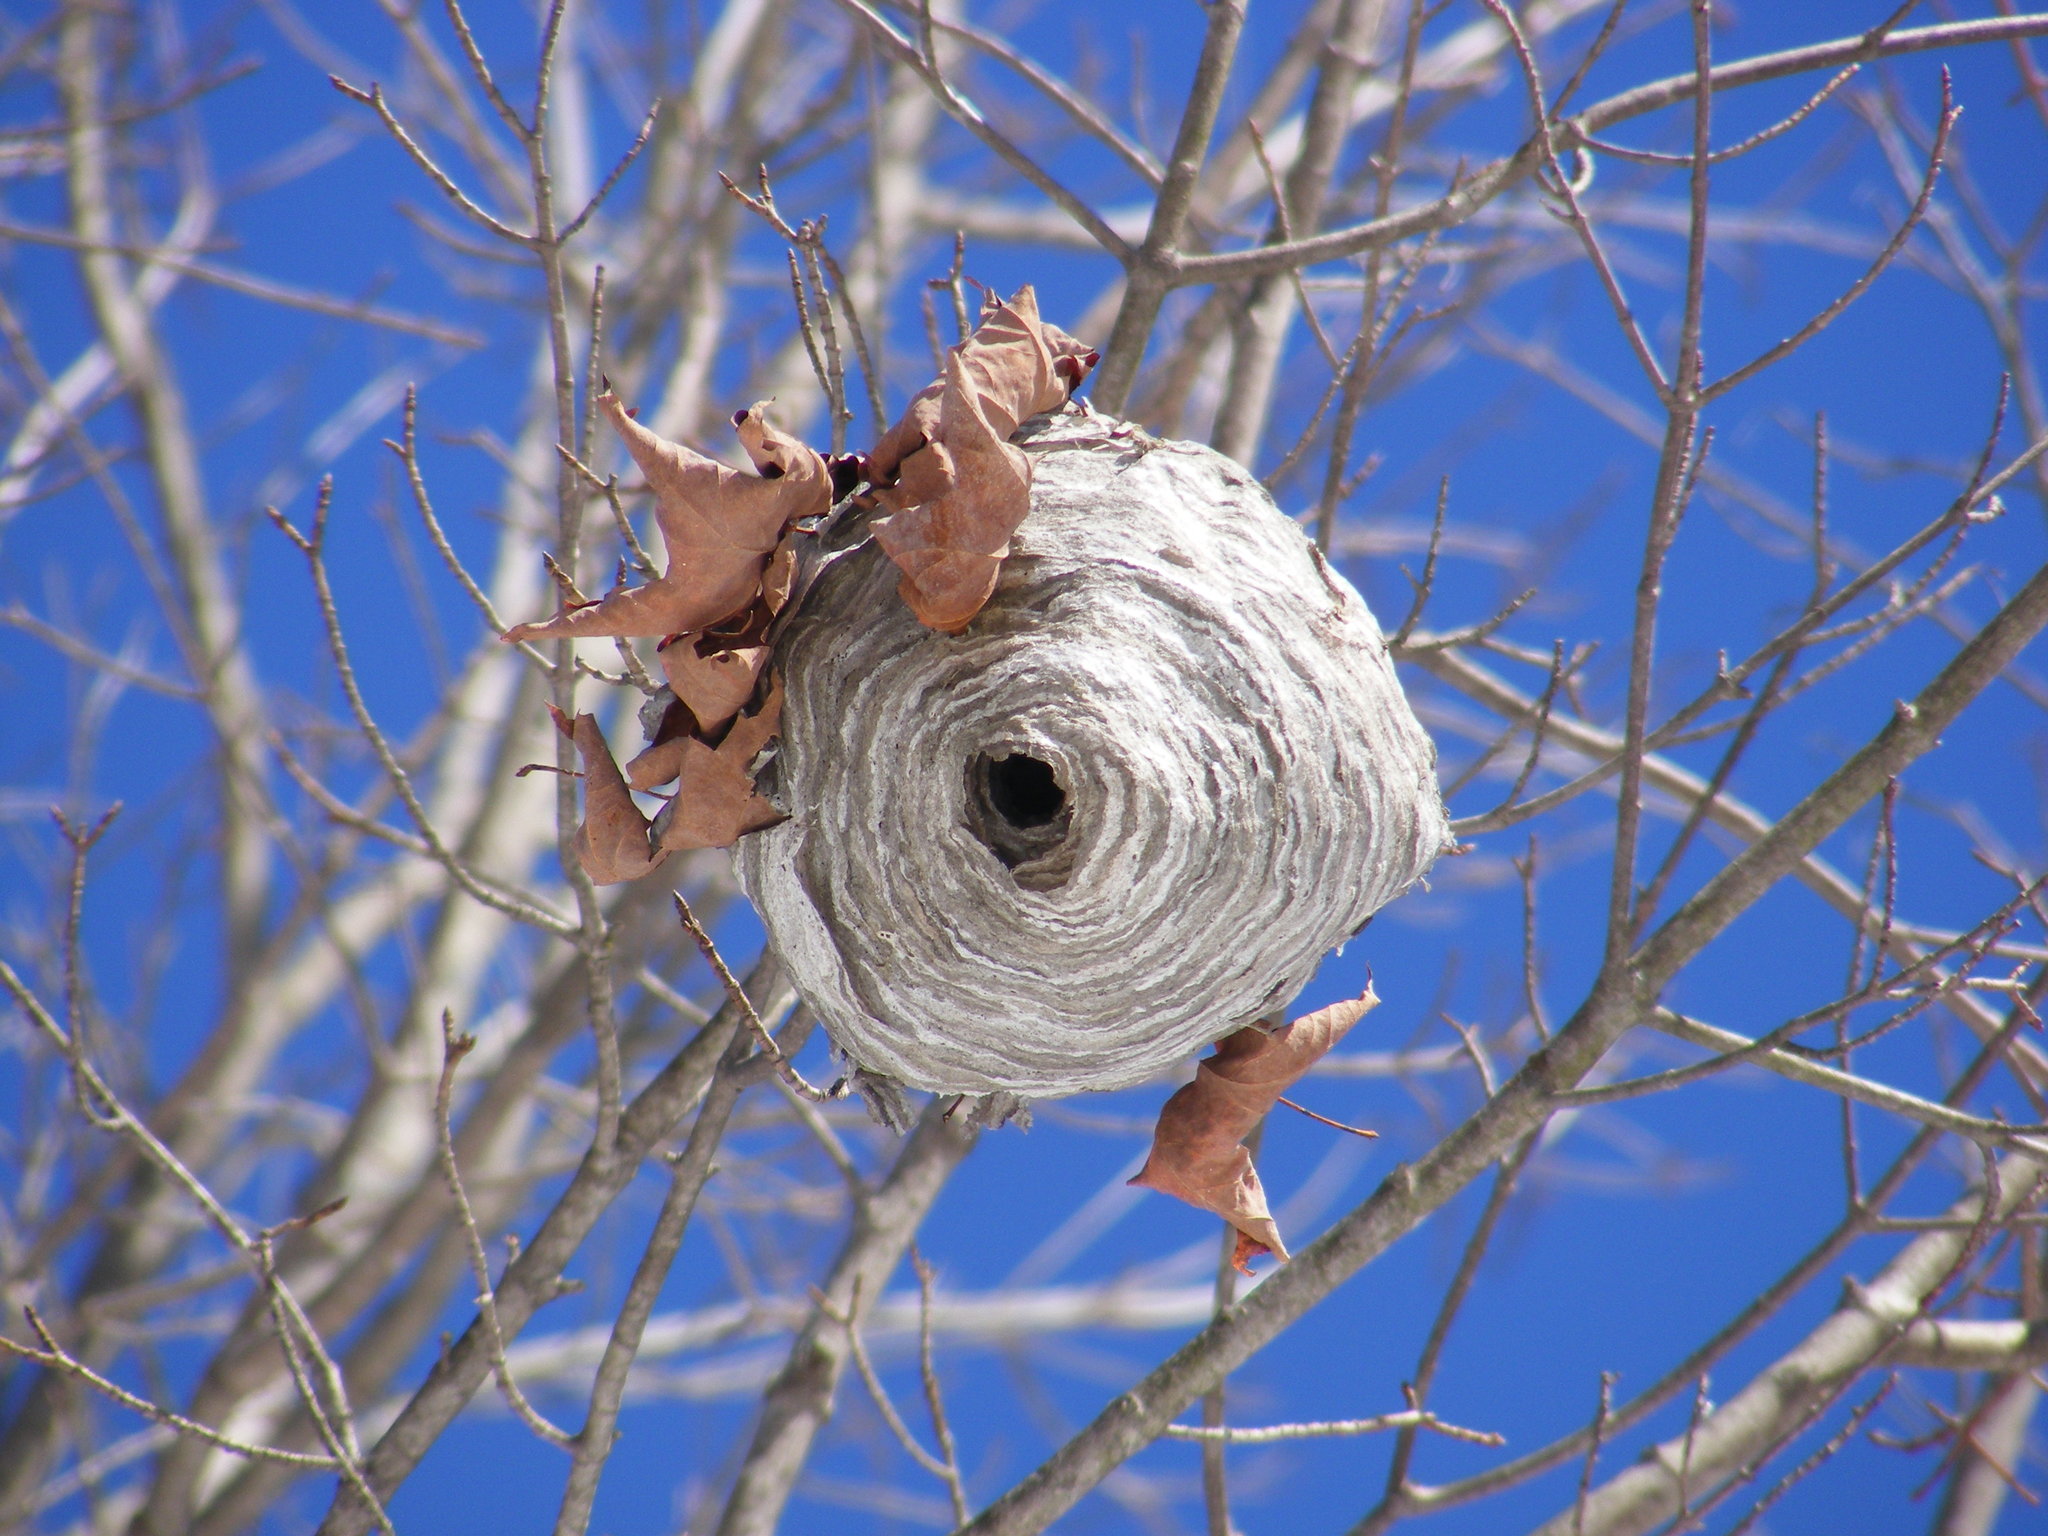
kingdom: Animalia
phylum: Arthropoda
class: Insecta
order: Hymenoptera
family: Vespidae
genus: Dolichovespula
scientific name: Dolichovespula
